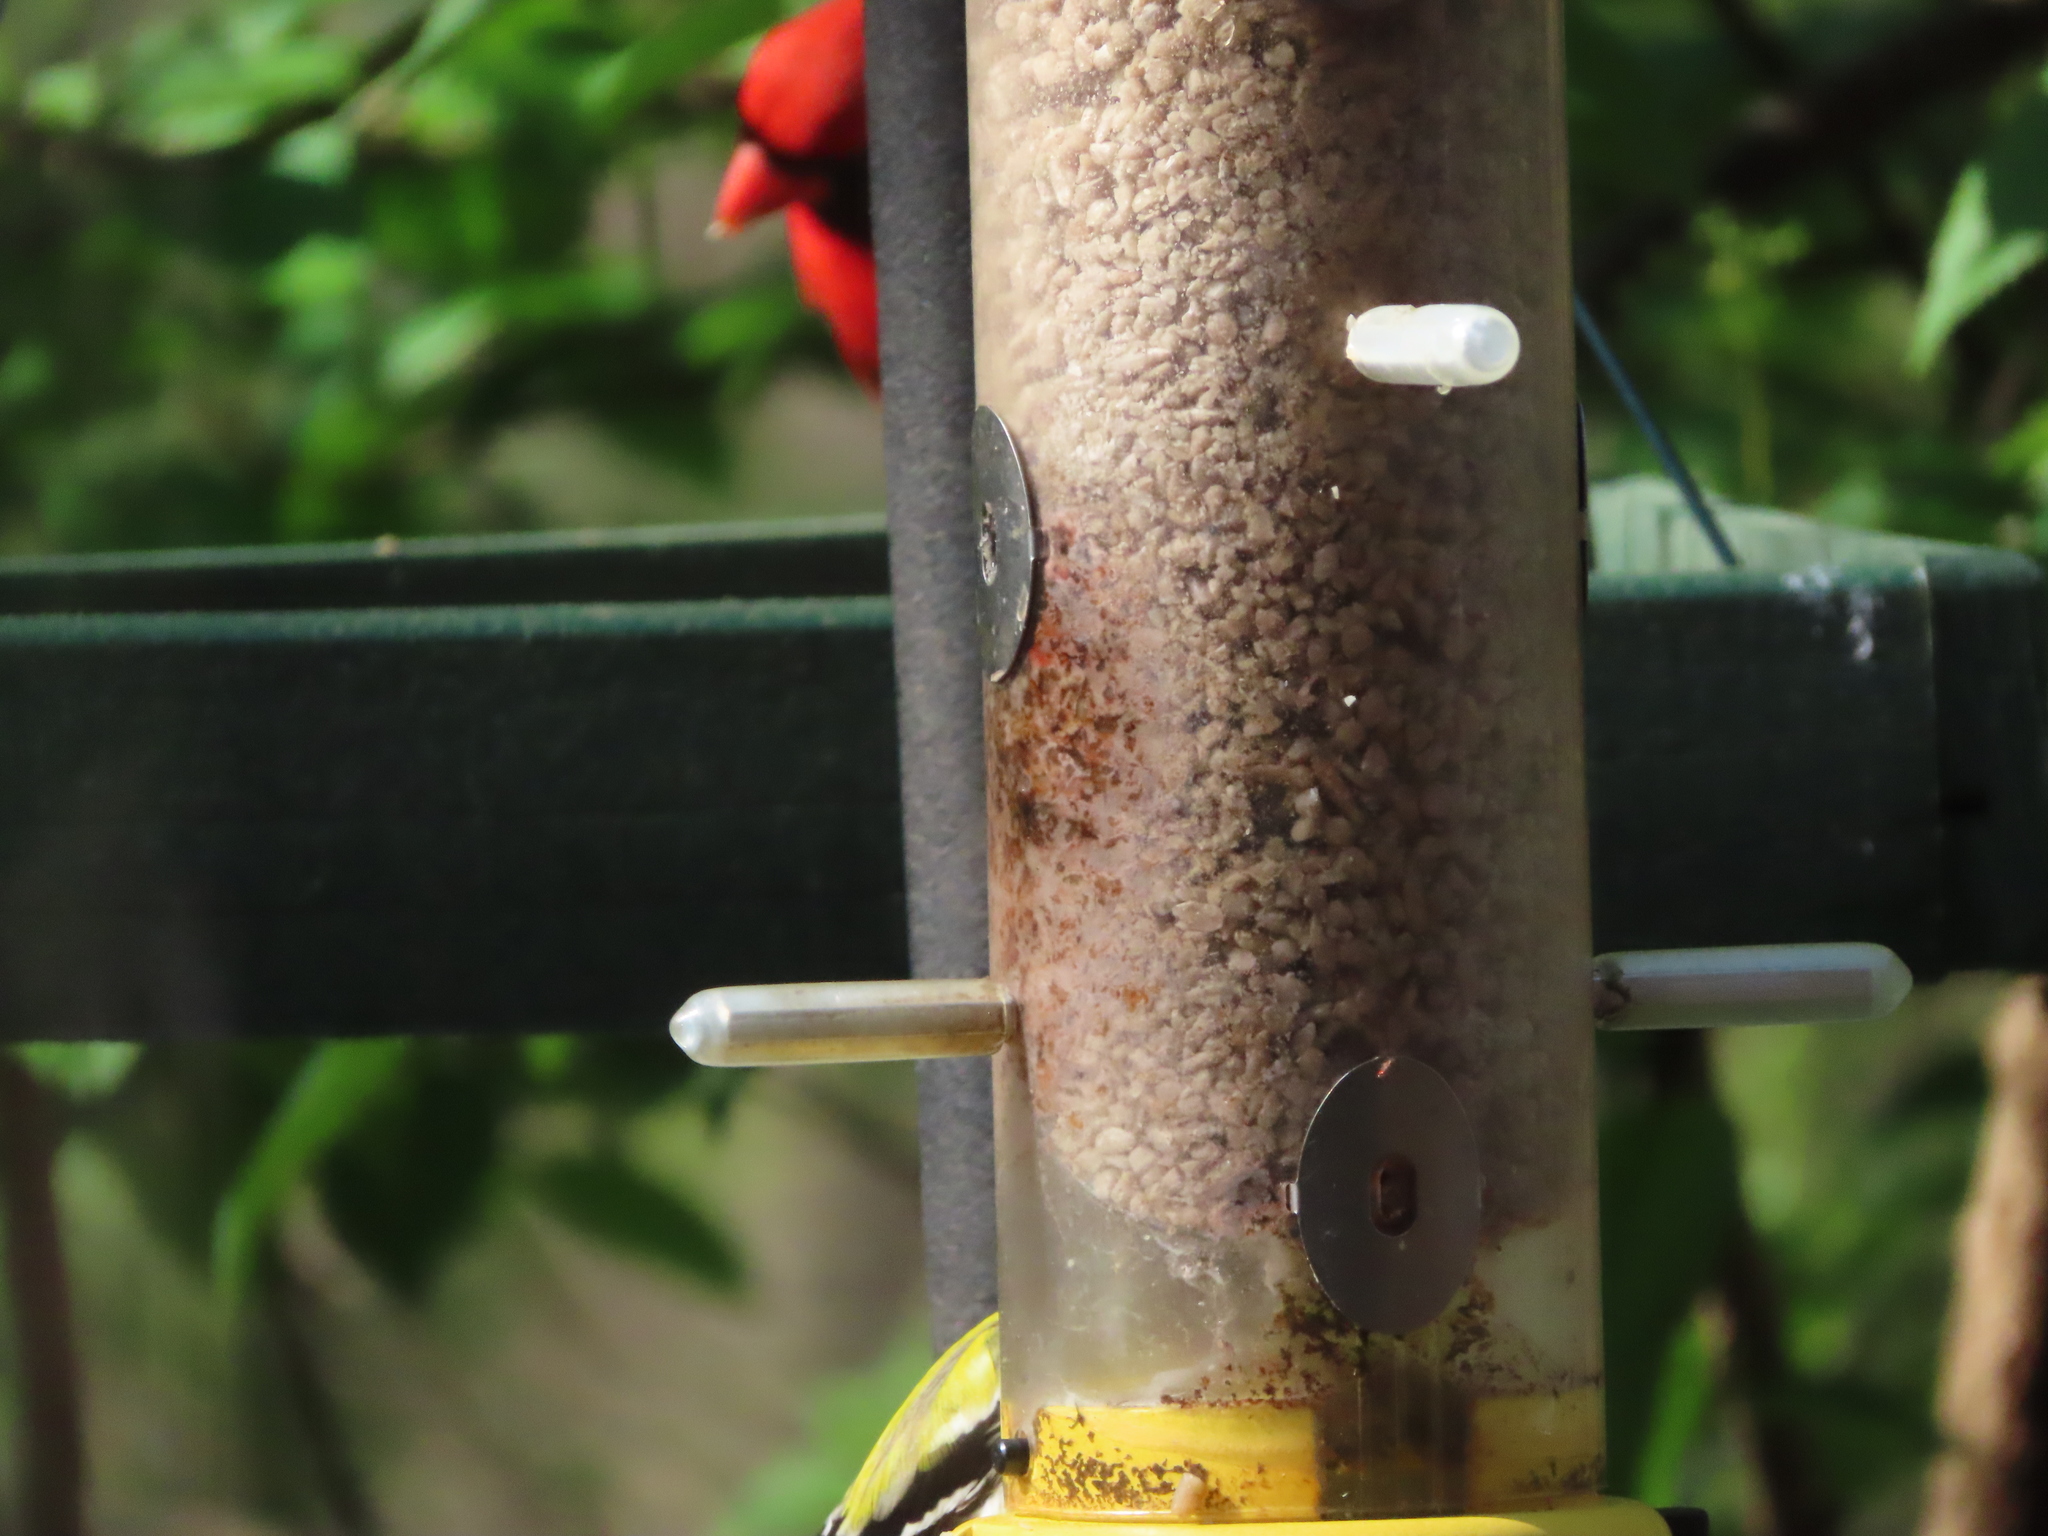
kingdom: Animalia
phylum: Chordata
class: Aves
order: Passeriformes
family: Cardinalidae
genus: Cardinalis
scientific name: Cardinalis cardinalis
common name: Northern cardinal
